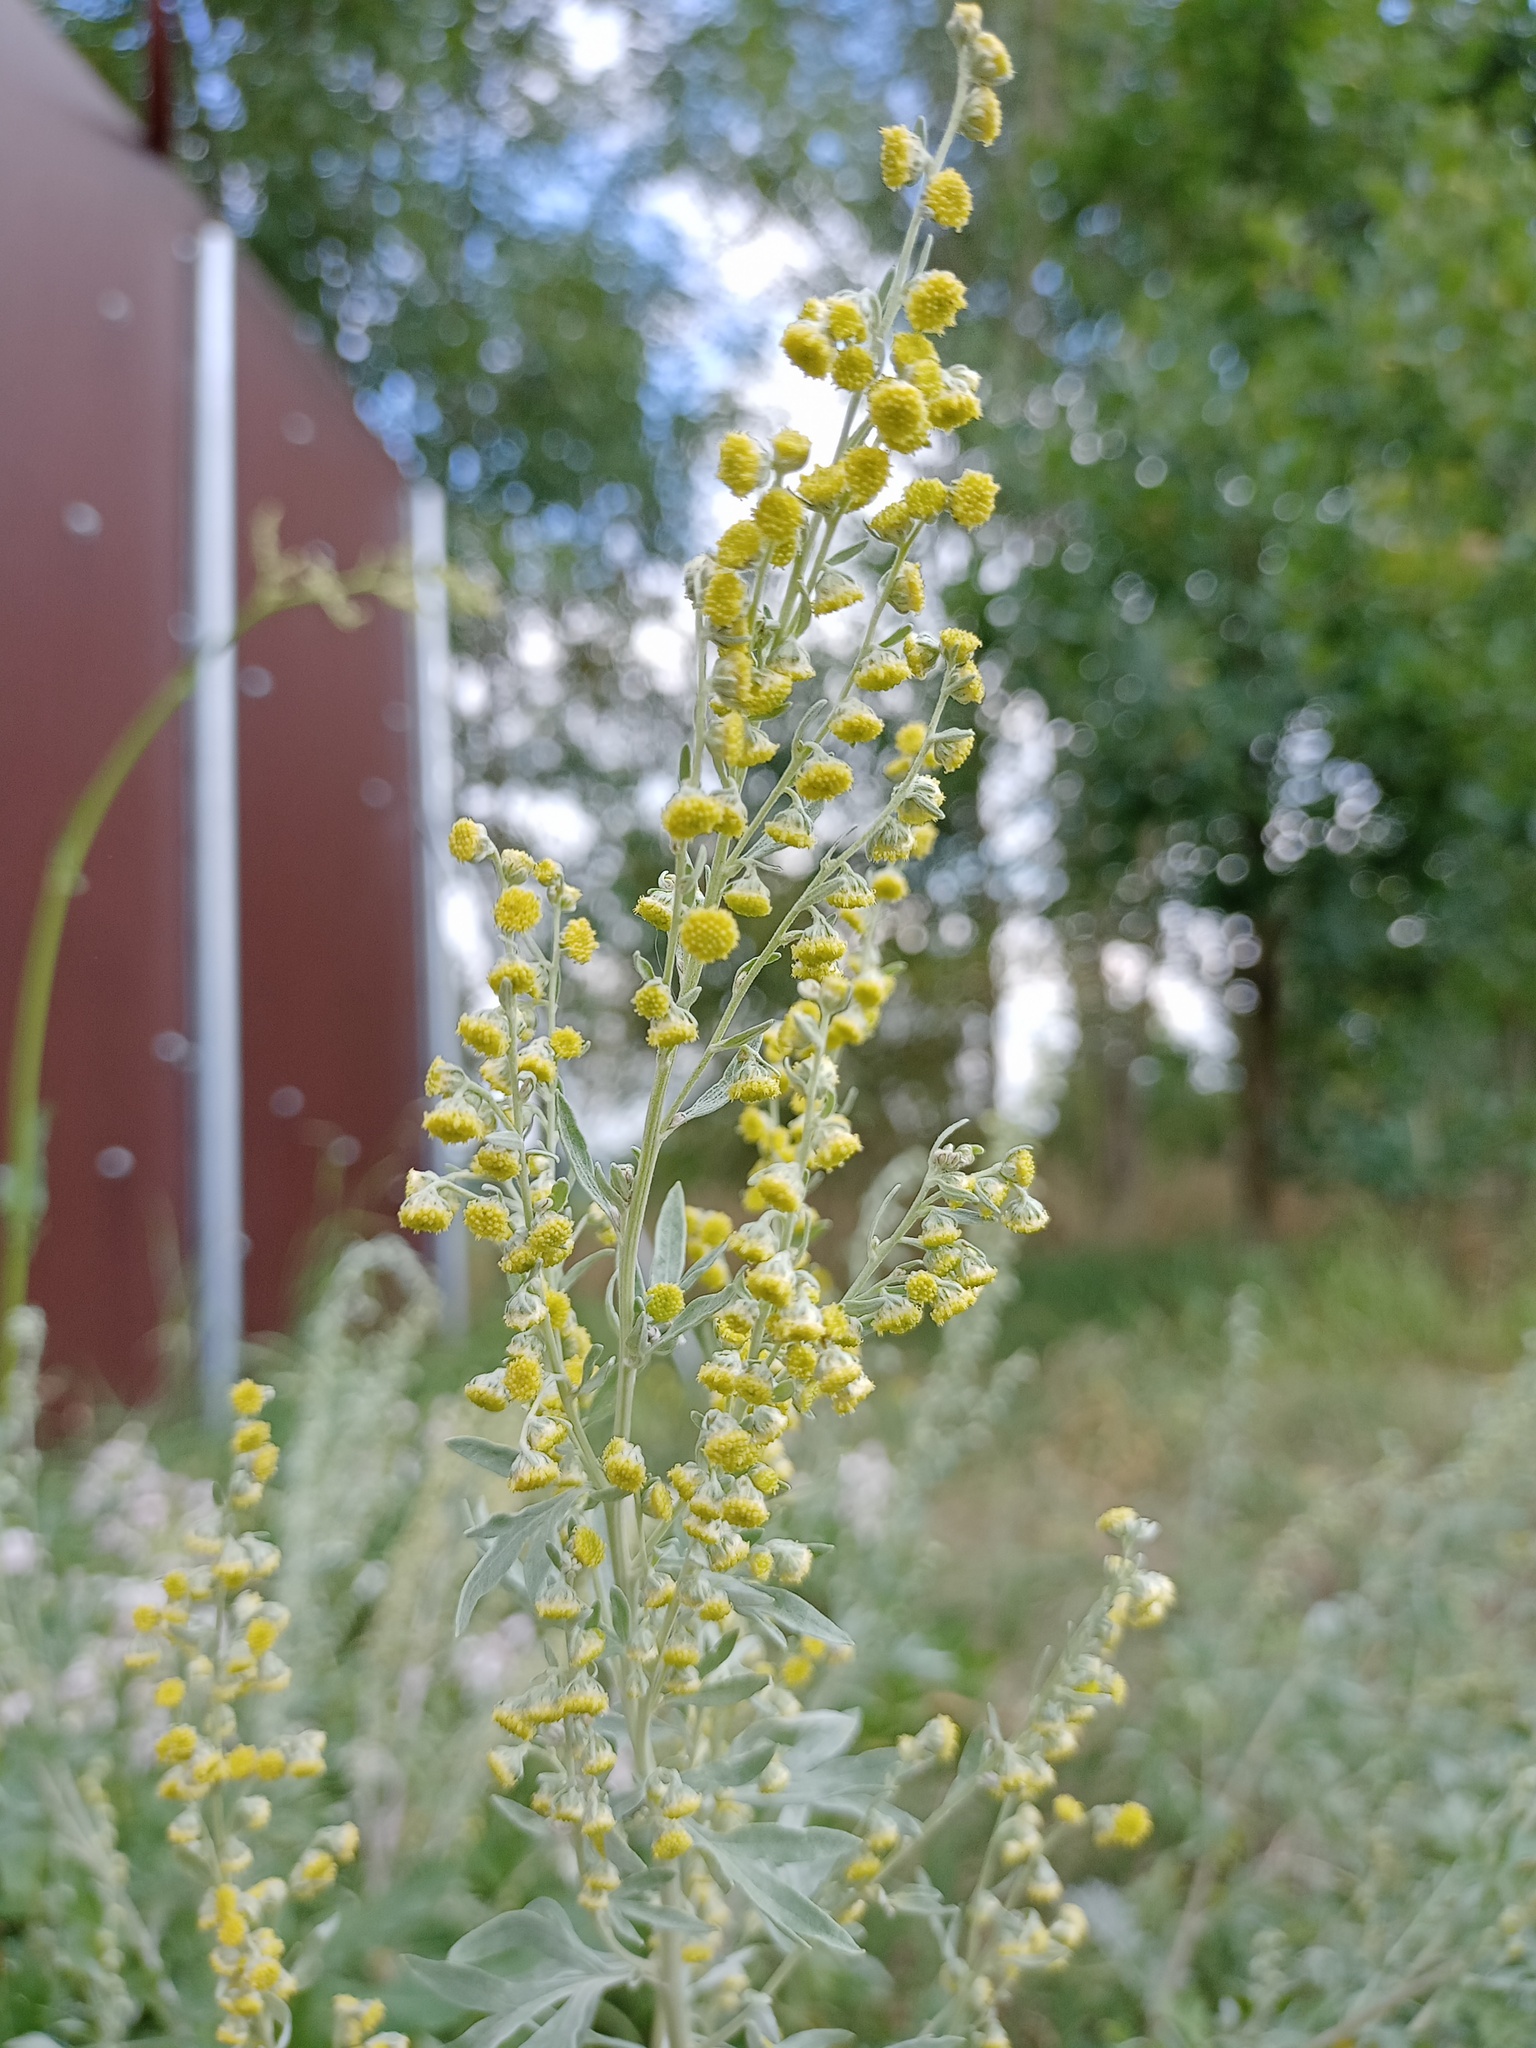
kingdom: Plantae
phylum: Tracheophyta
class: Magnoliopsida
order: Asterales
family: Asteraceae
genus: Artemisia
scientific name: Artemisia absinthium
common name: Wormwood
